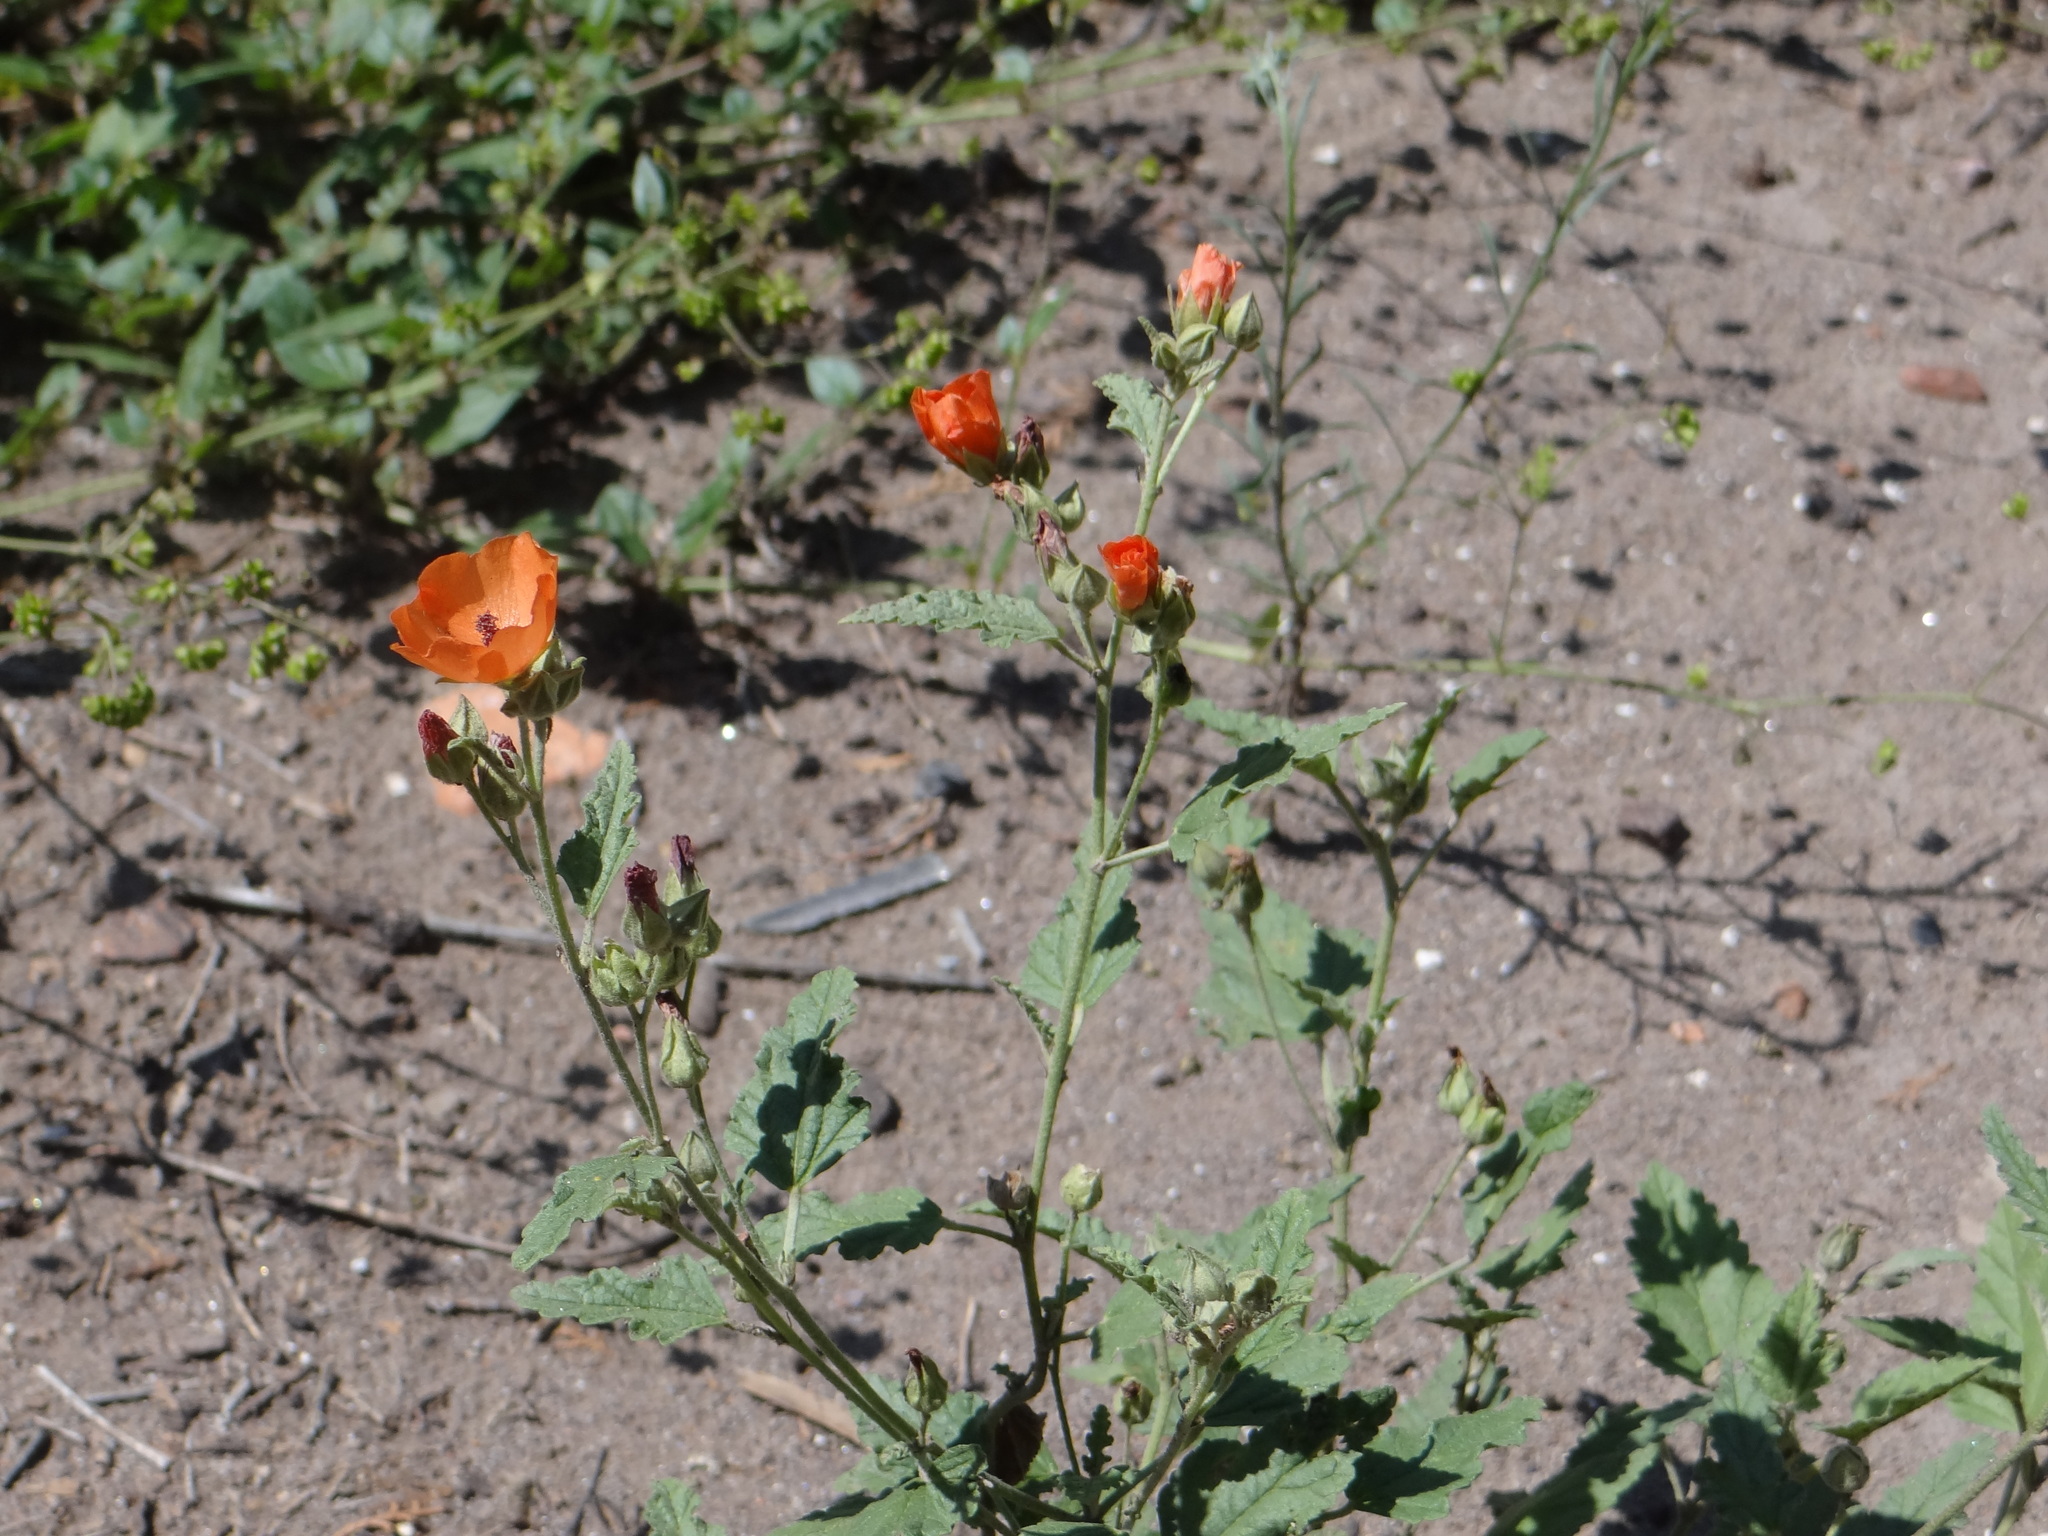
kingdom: Plantae
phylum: Tracheophyta
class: Magnoliopsida
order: Malvales
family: Malvaceae
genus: Sphaeralcea
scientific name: Sphaeralcea miniata
